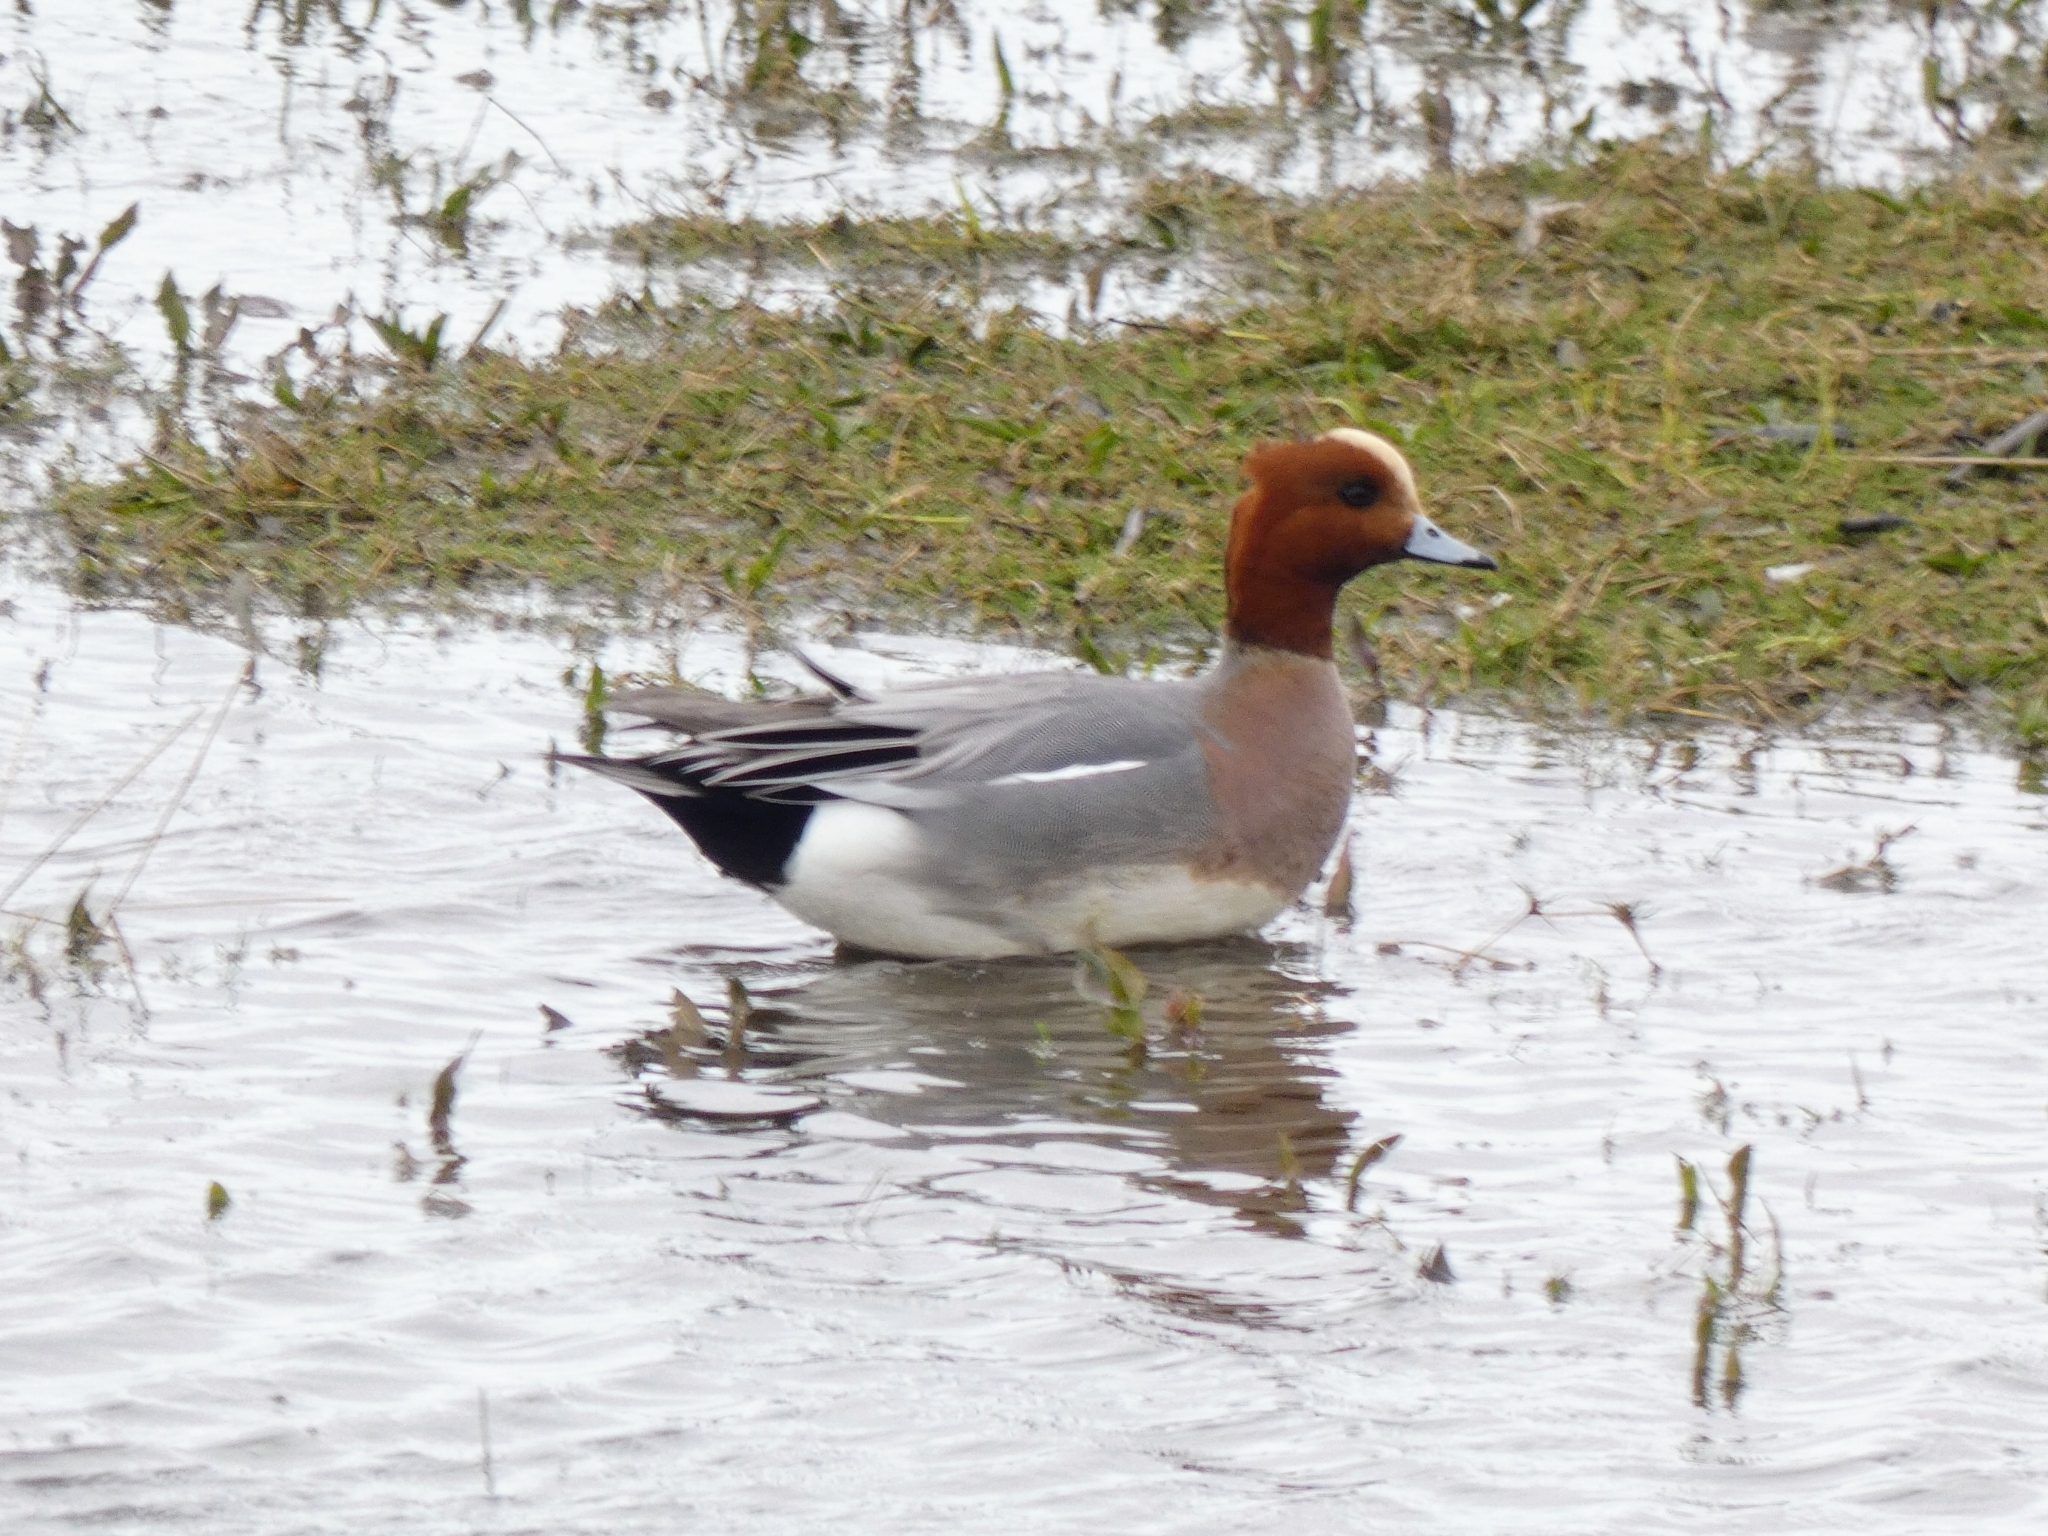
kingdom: Animalia
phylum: Chordata
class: Aves
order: Anseriformes
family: Anatidae
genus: Mareca
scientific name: Mareca penelope
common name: Eurasian wigeon
